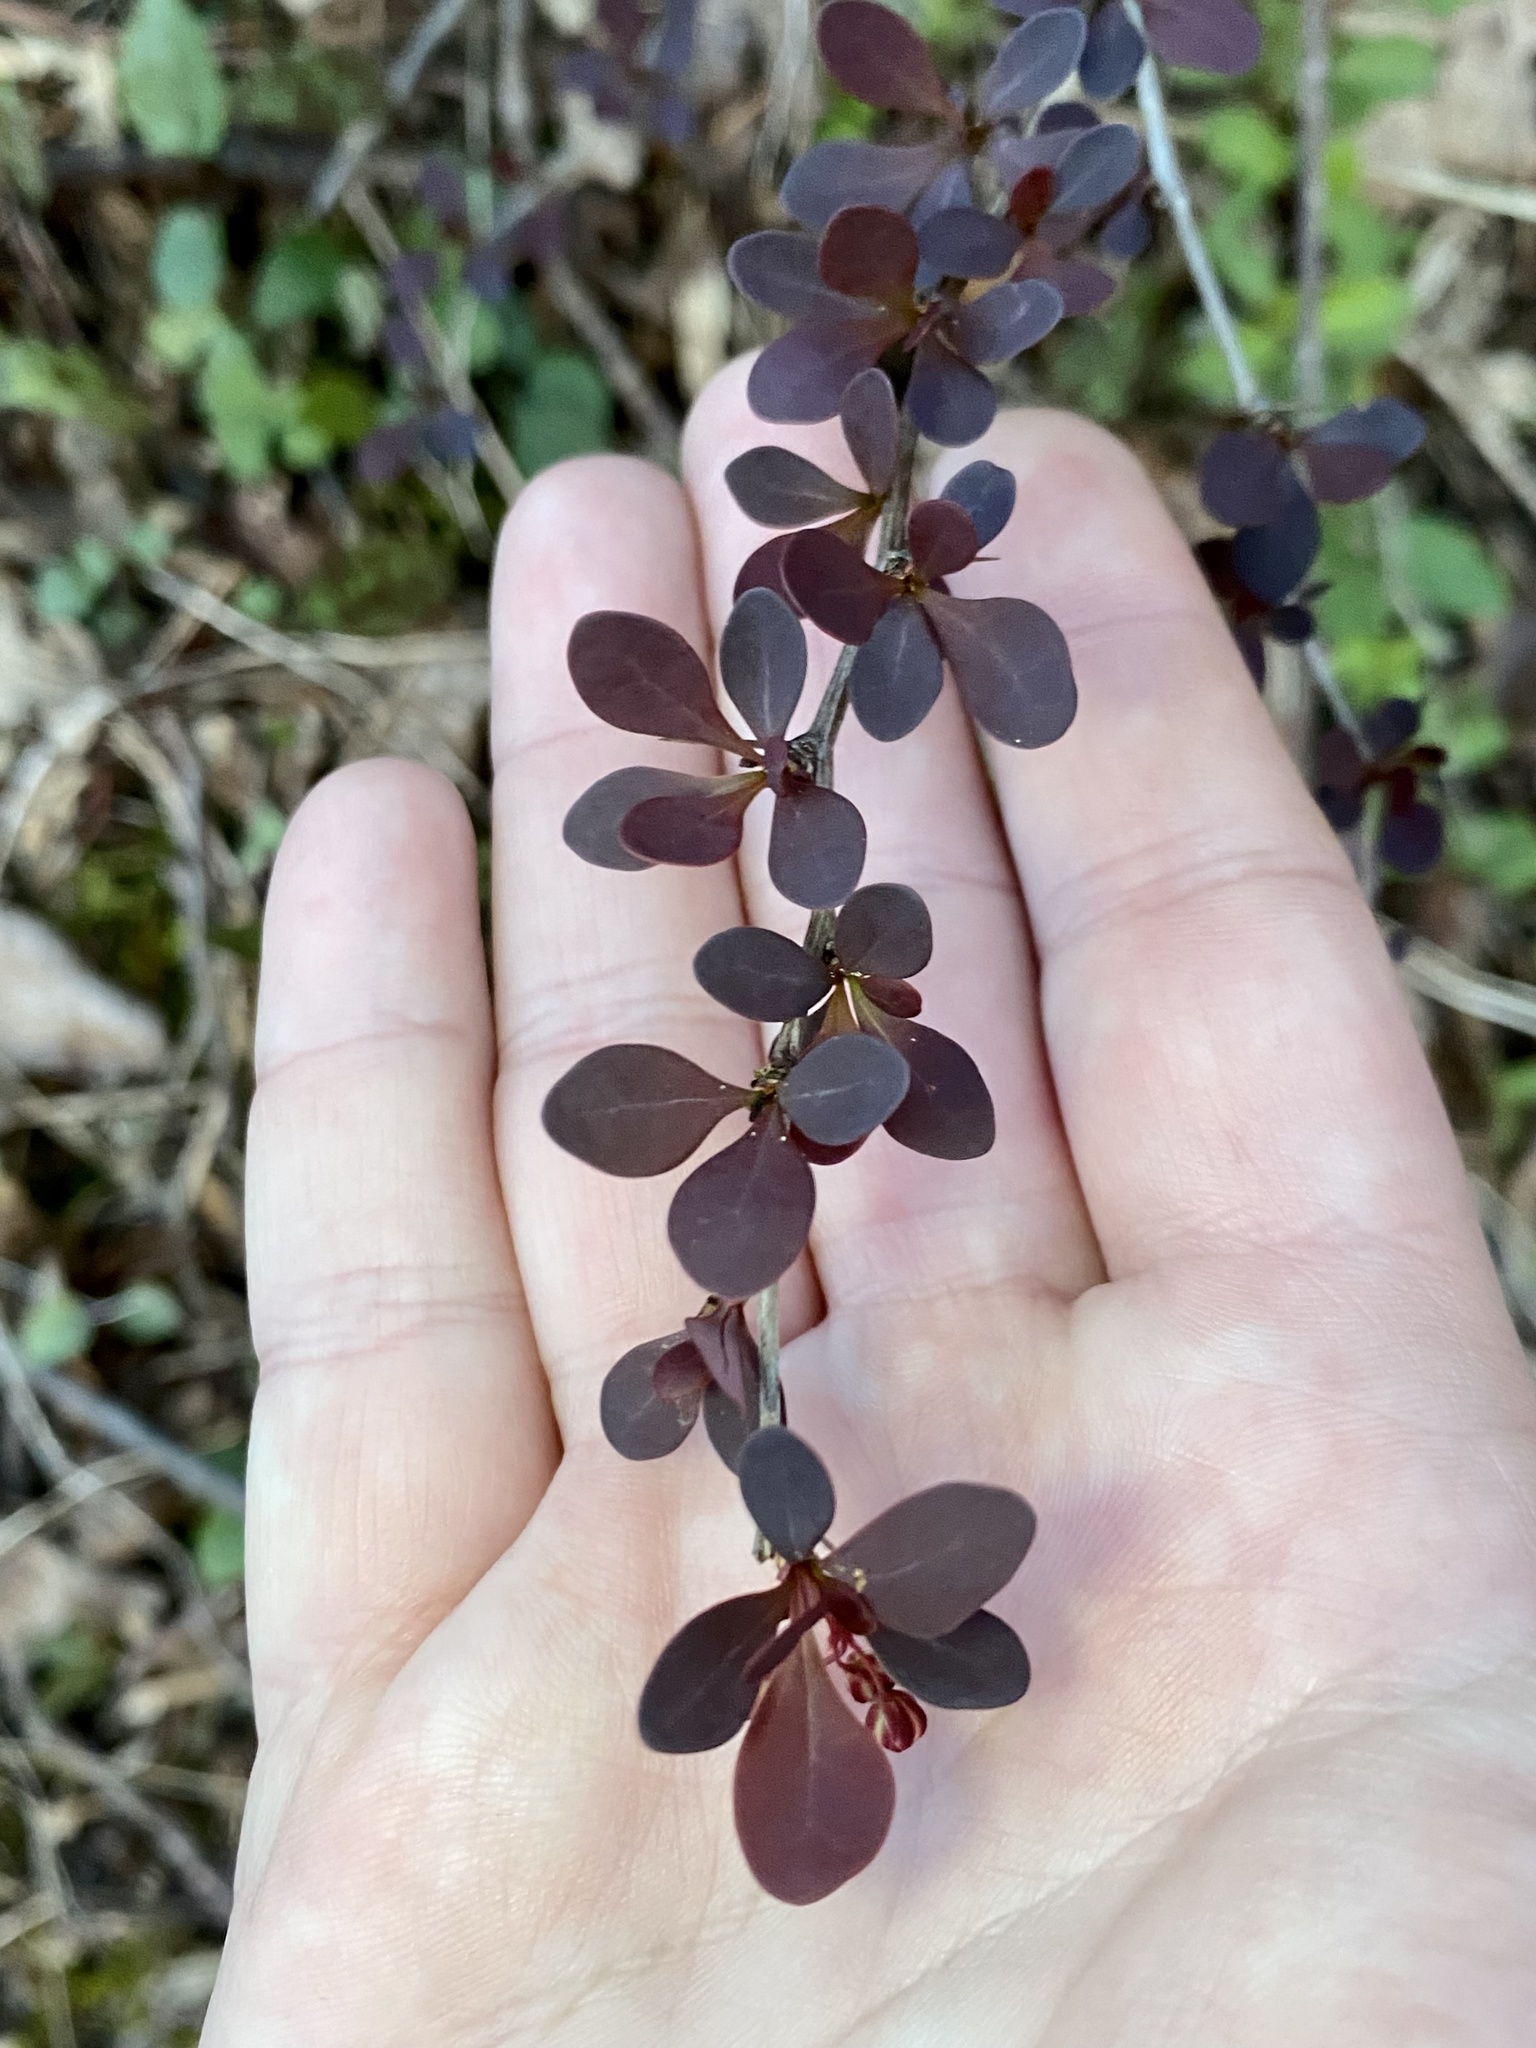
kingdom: Plantae
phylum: Tracheophyta
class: Magnoliopsida
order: Ranunculales
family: Berberidaceae
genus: Berberis
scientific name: Berberis thunbergii
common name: Japanese barberry
